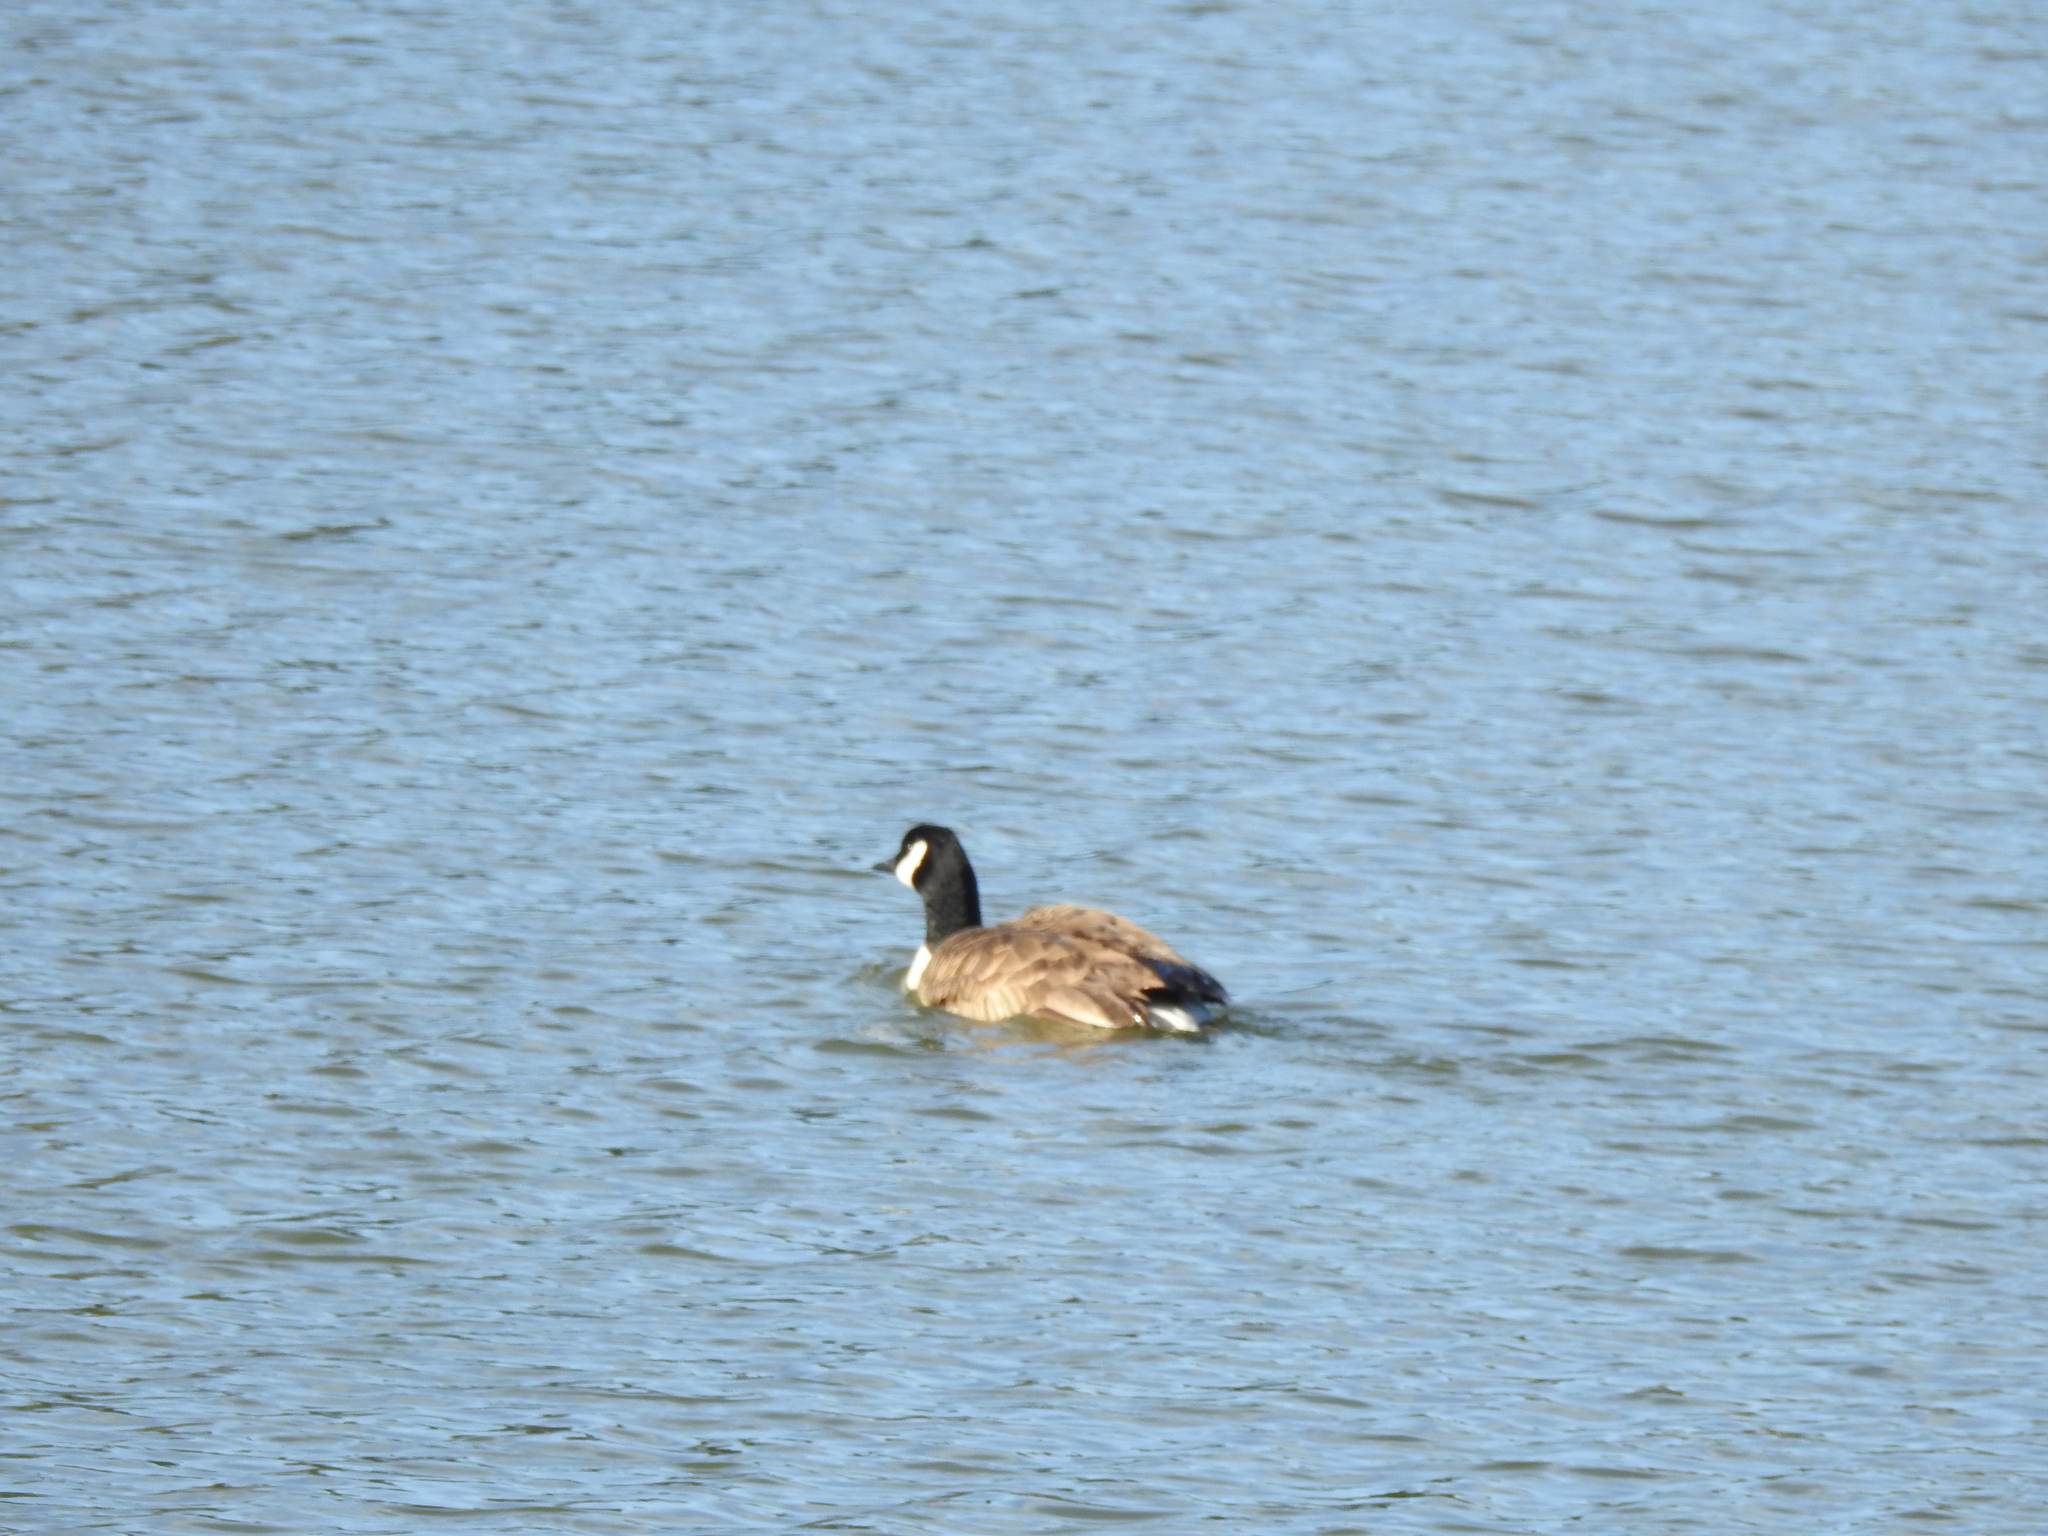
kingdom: Animalia
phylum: Chordata
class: Aves
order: Anseriformes
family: Anatidae
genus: Branta
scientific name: Branta canadensis
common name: Canada goose
